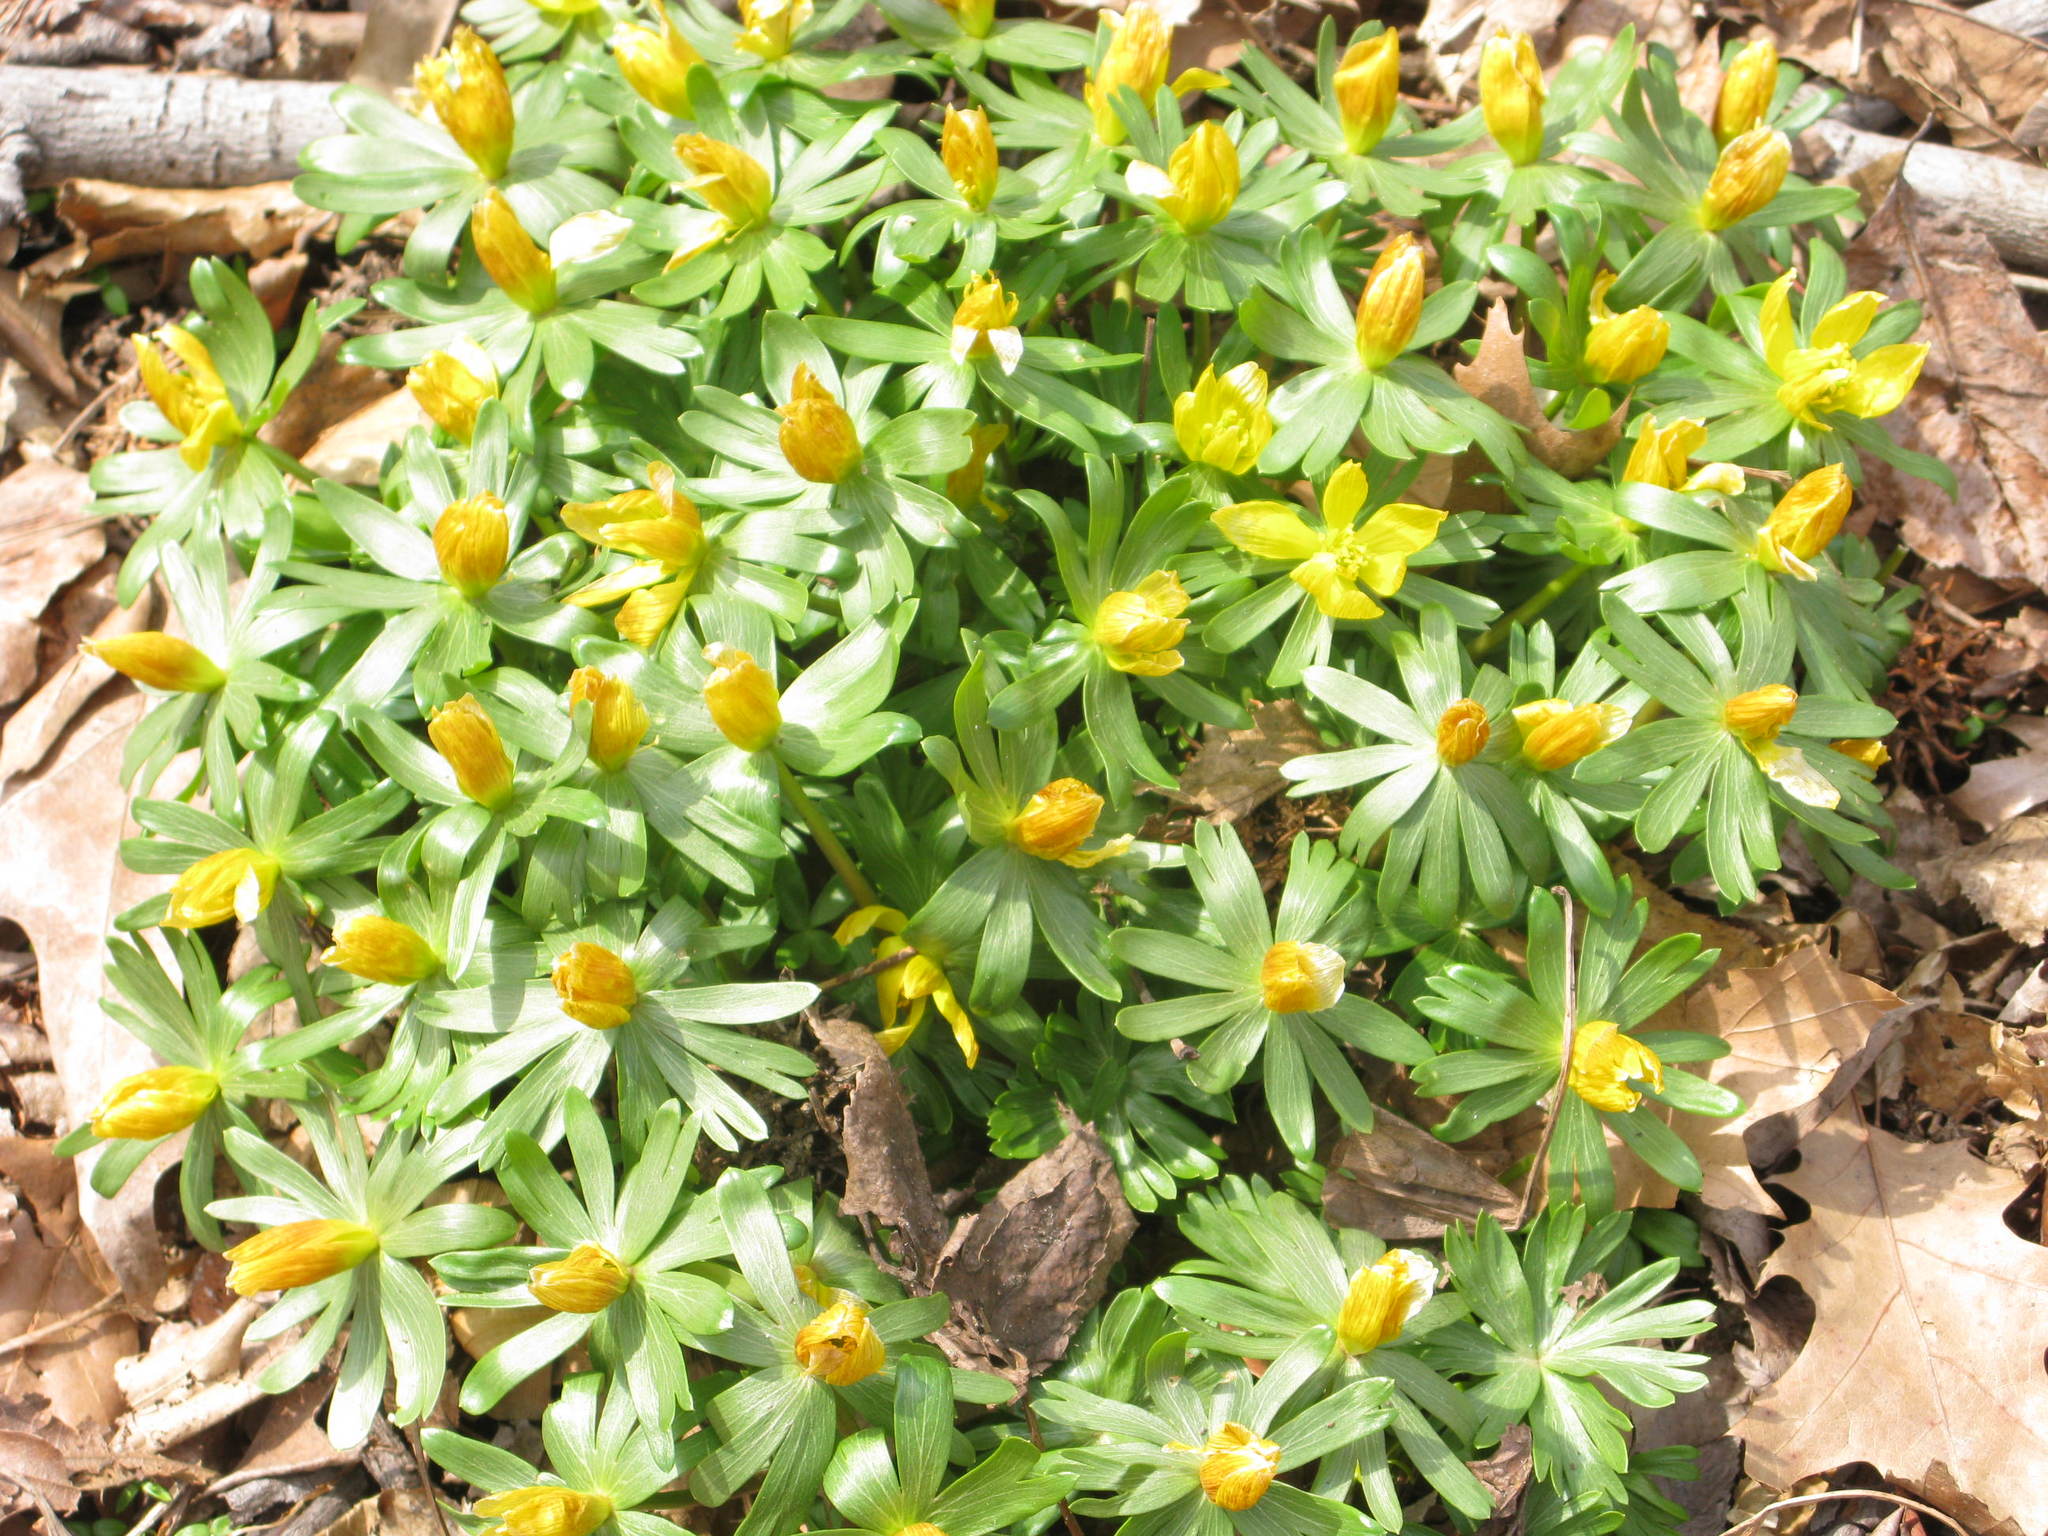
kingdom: Plantae
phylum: Tracheophyta
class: Magnoliopsida
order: Ranunculales
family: Ranunculaceae
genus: Eranthis
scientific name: Eranthis hyemalis
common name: Winter aconite
